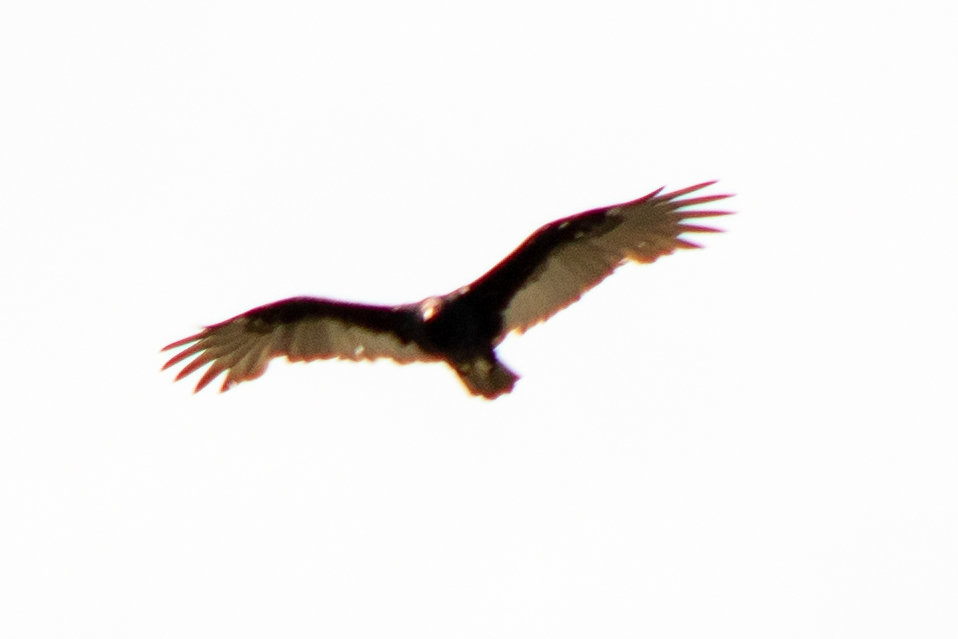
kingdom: Animalia
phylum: Chordata
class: Aves
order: Accipitriformes
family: Cathartidae
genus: Cathartes
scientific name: Cathartes aura
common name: Turkey vulture
